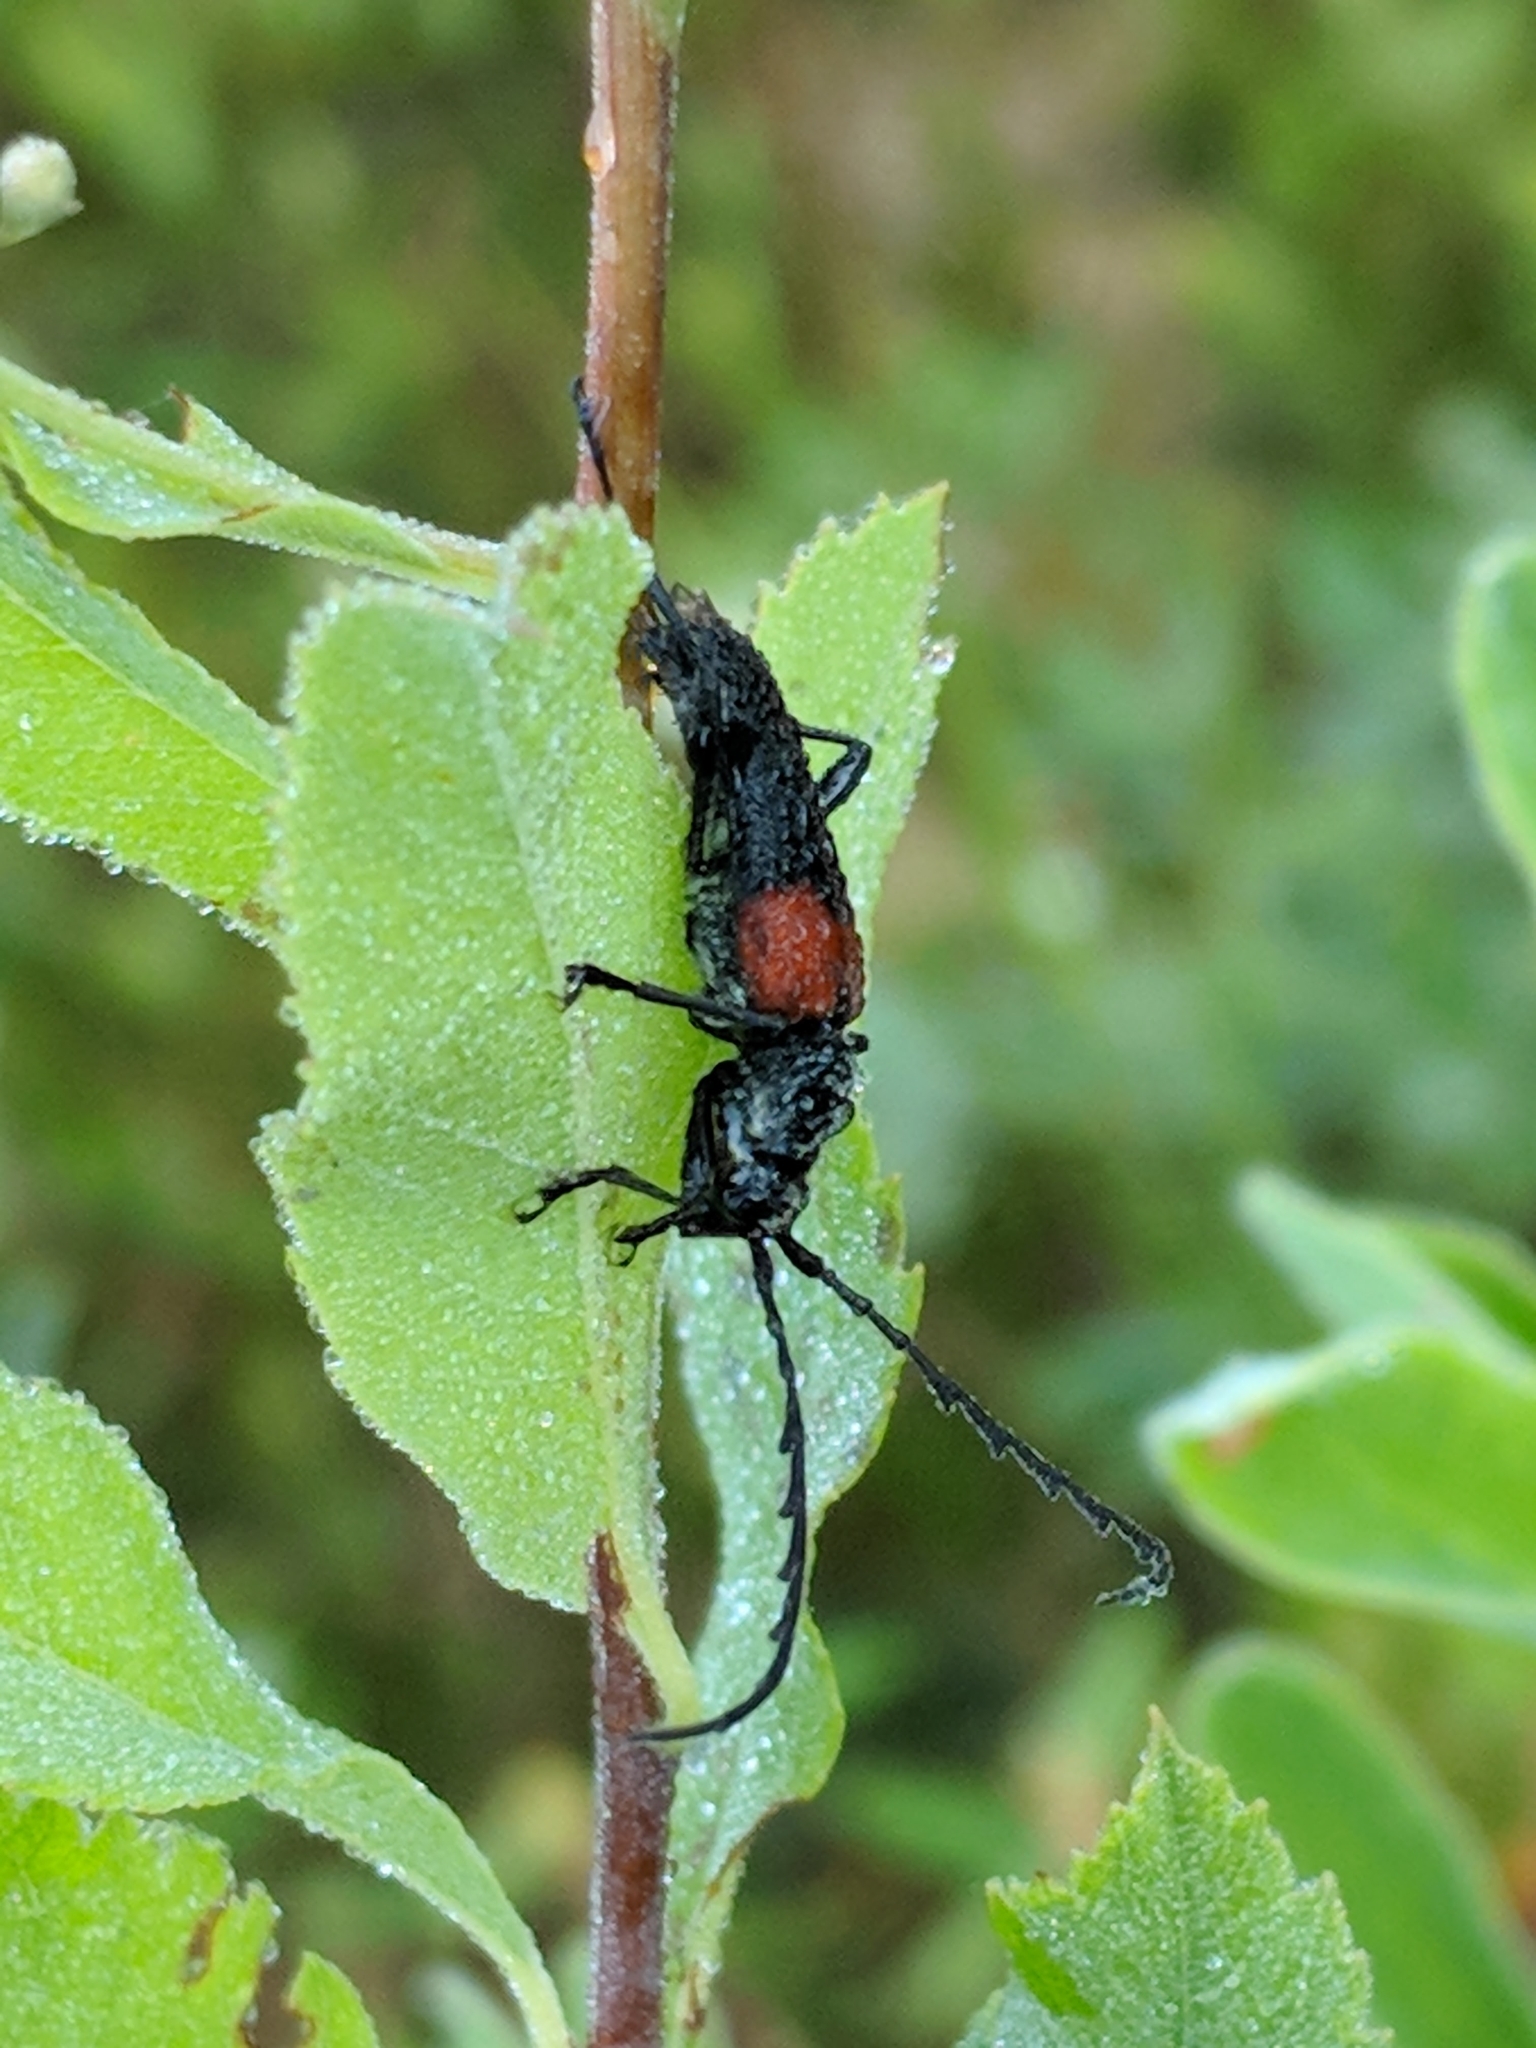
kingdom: Animalia
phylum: Arthropoda
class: Insecta
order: Coleoptera
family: Cerambycidae
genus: Stictoleptura
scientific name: Stictoleptura canadensis
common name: Red-shouldered pine borer
